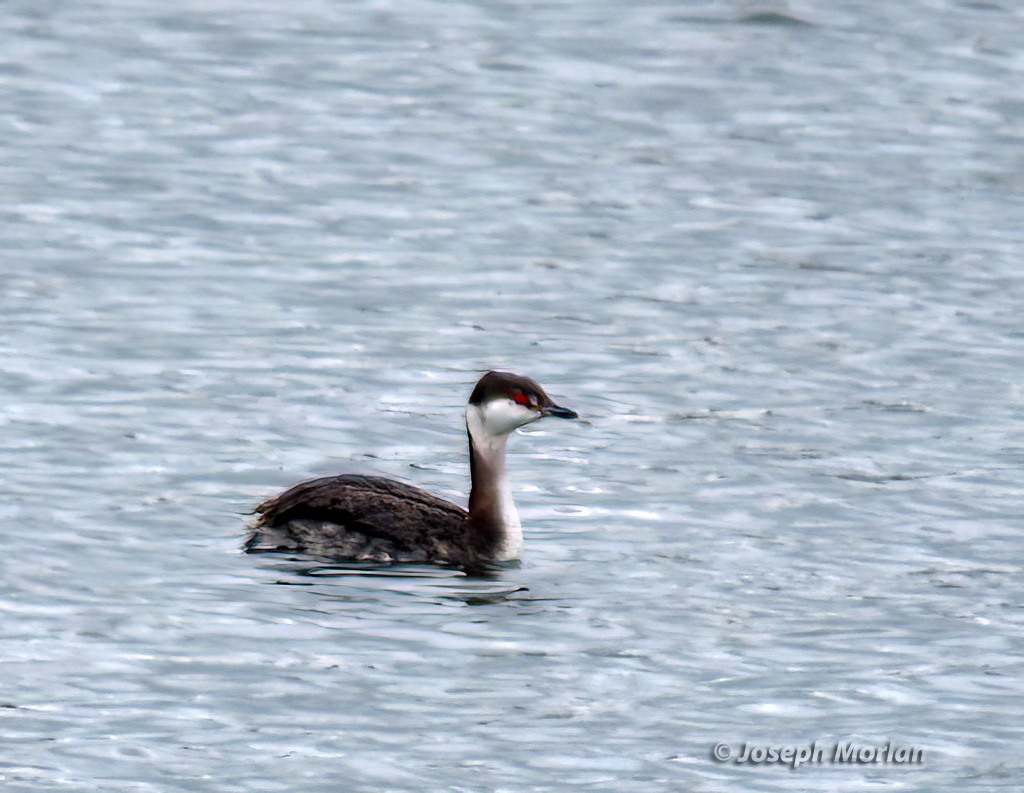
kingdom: Animalia
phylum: Chordata
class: Aves
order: Podicipediformes
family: Podicipedidae
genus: Podiceps
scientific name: Podiceps auritus
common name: Horned grebe
